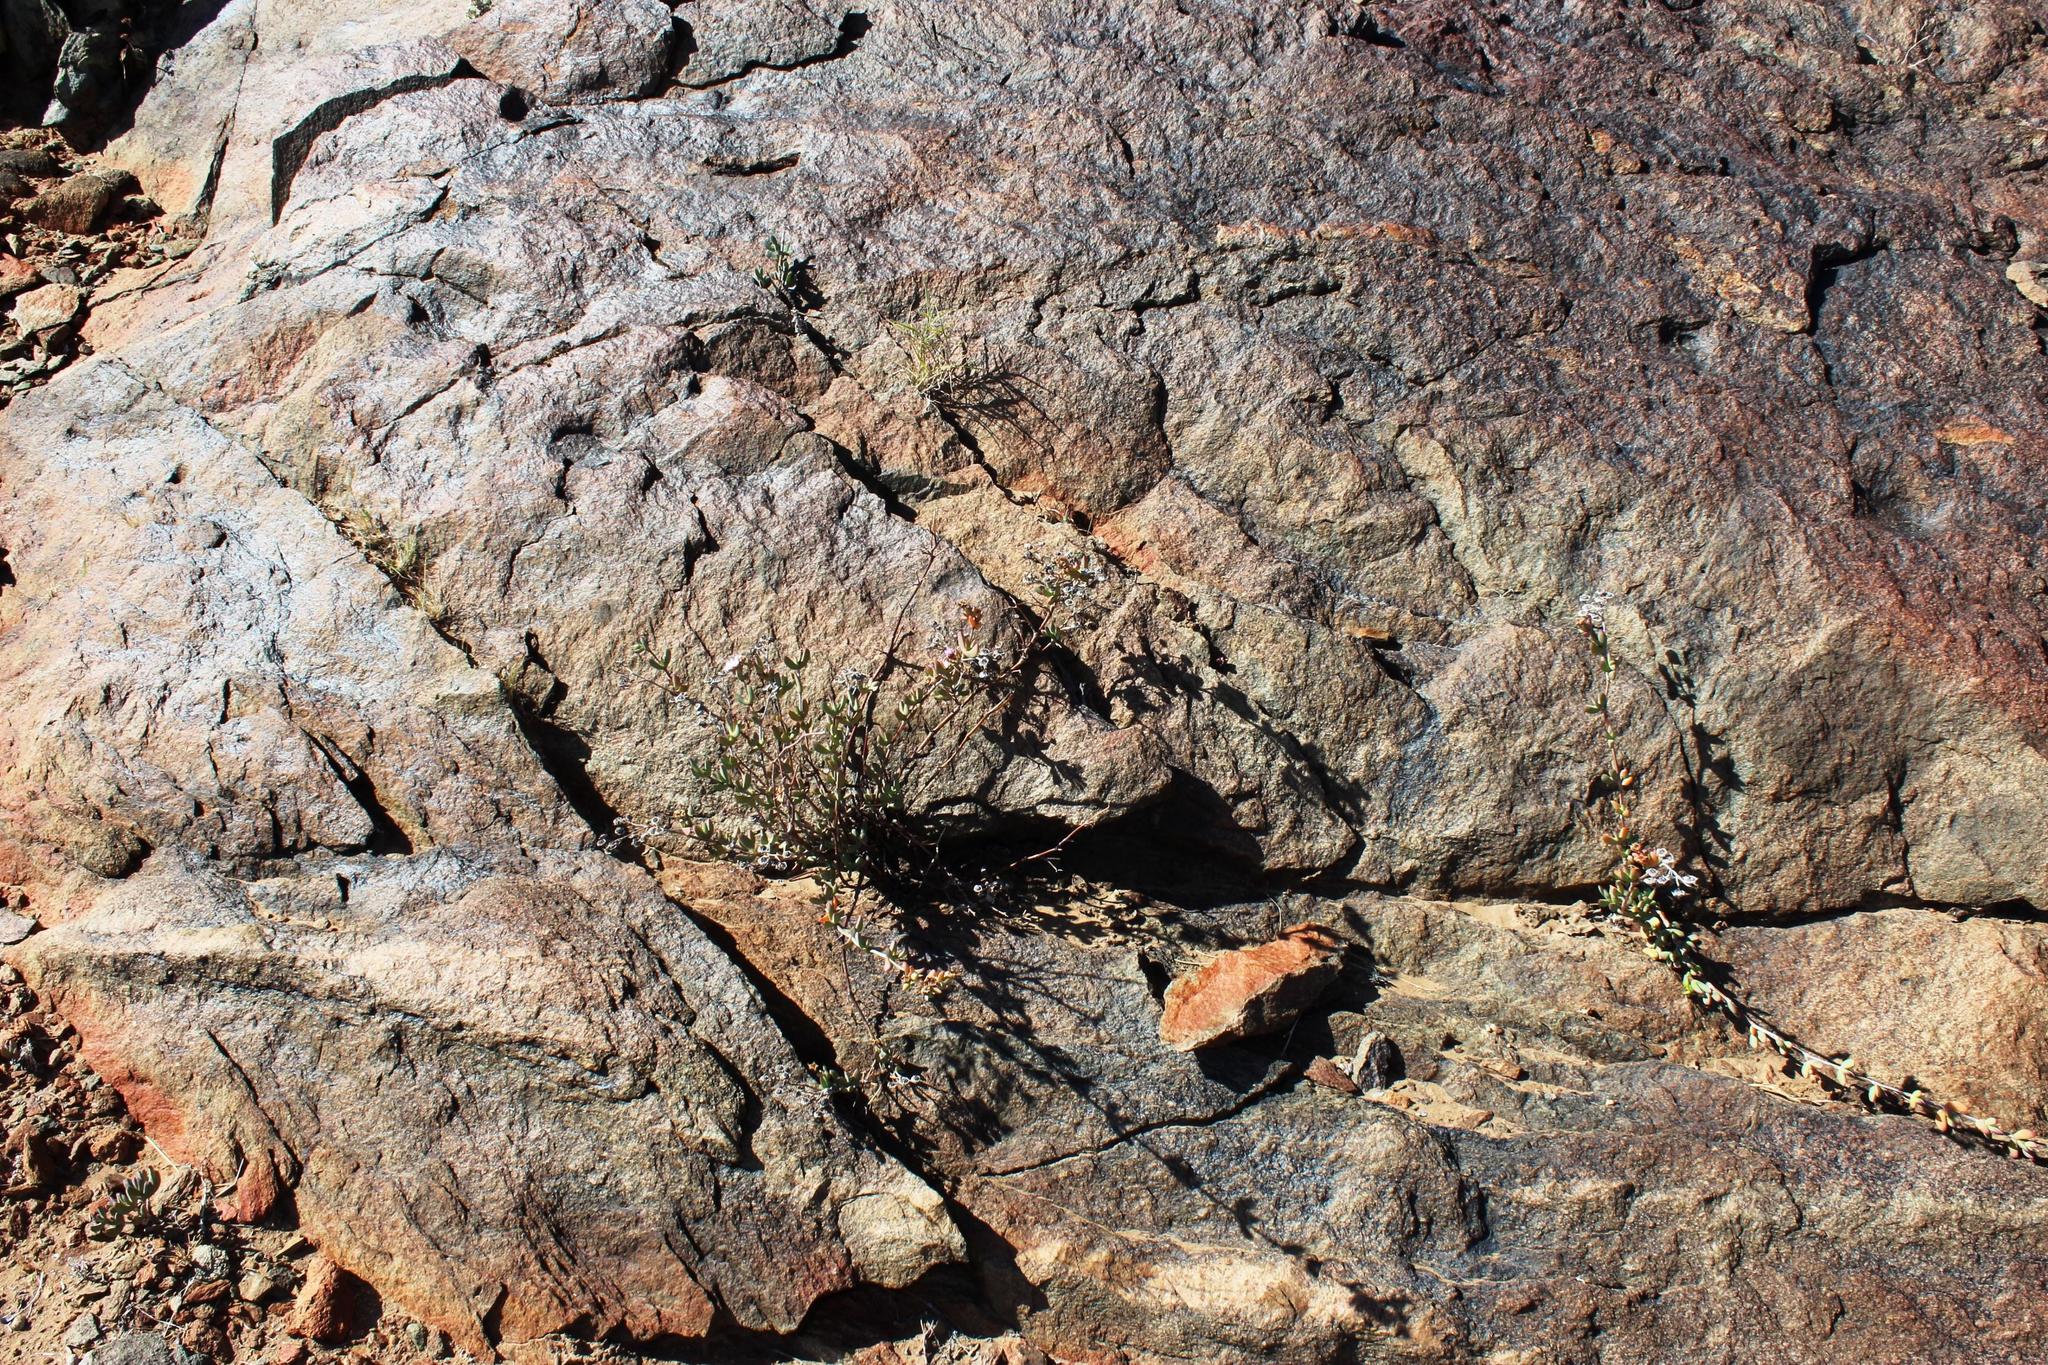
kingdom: Plantae
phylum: Tracheophyta
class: Magnoliopsida
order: Caryophyllales
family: Aizoaceae
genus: Leipoldtia
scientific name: Leipoldtia laxa
